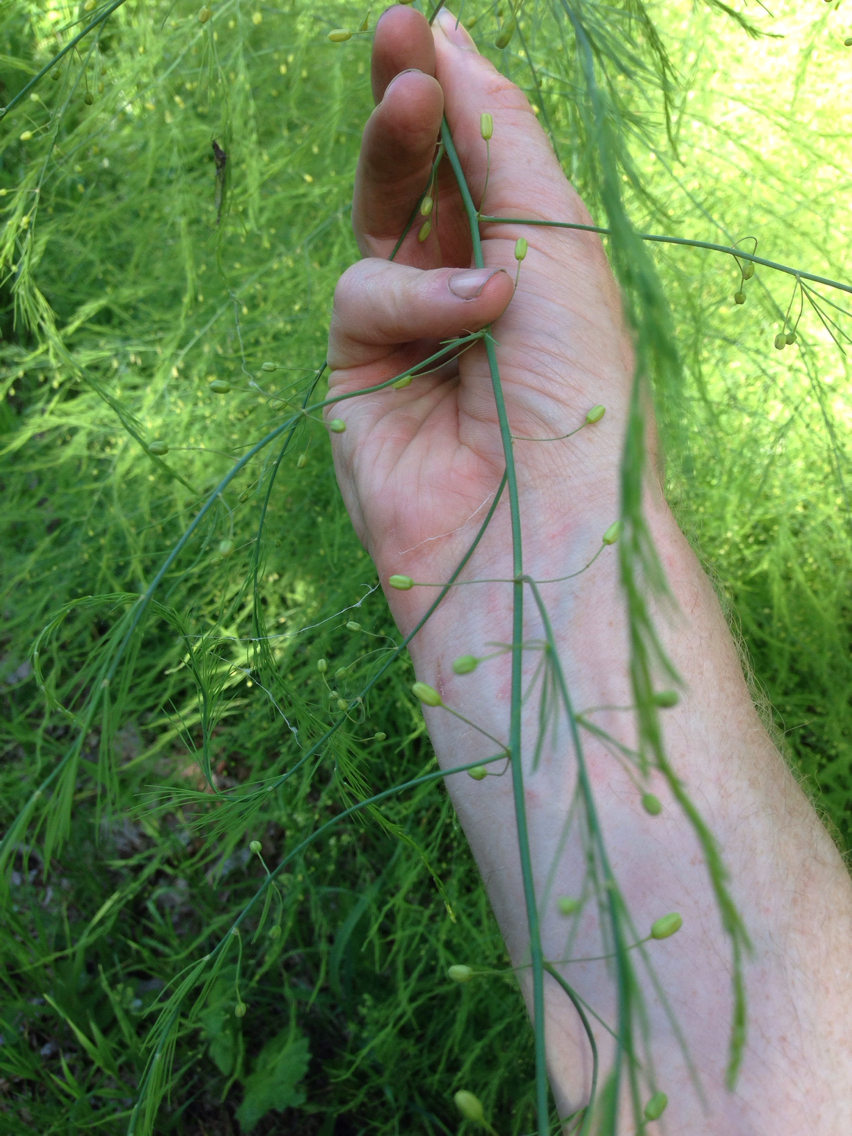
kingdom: Plantae
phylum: Tracheophyta
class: Liliopsida
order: Asparagales
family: Asparagaceae
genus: Asparagus
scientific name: Asparagus officinalis
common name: Garden asparagus
